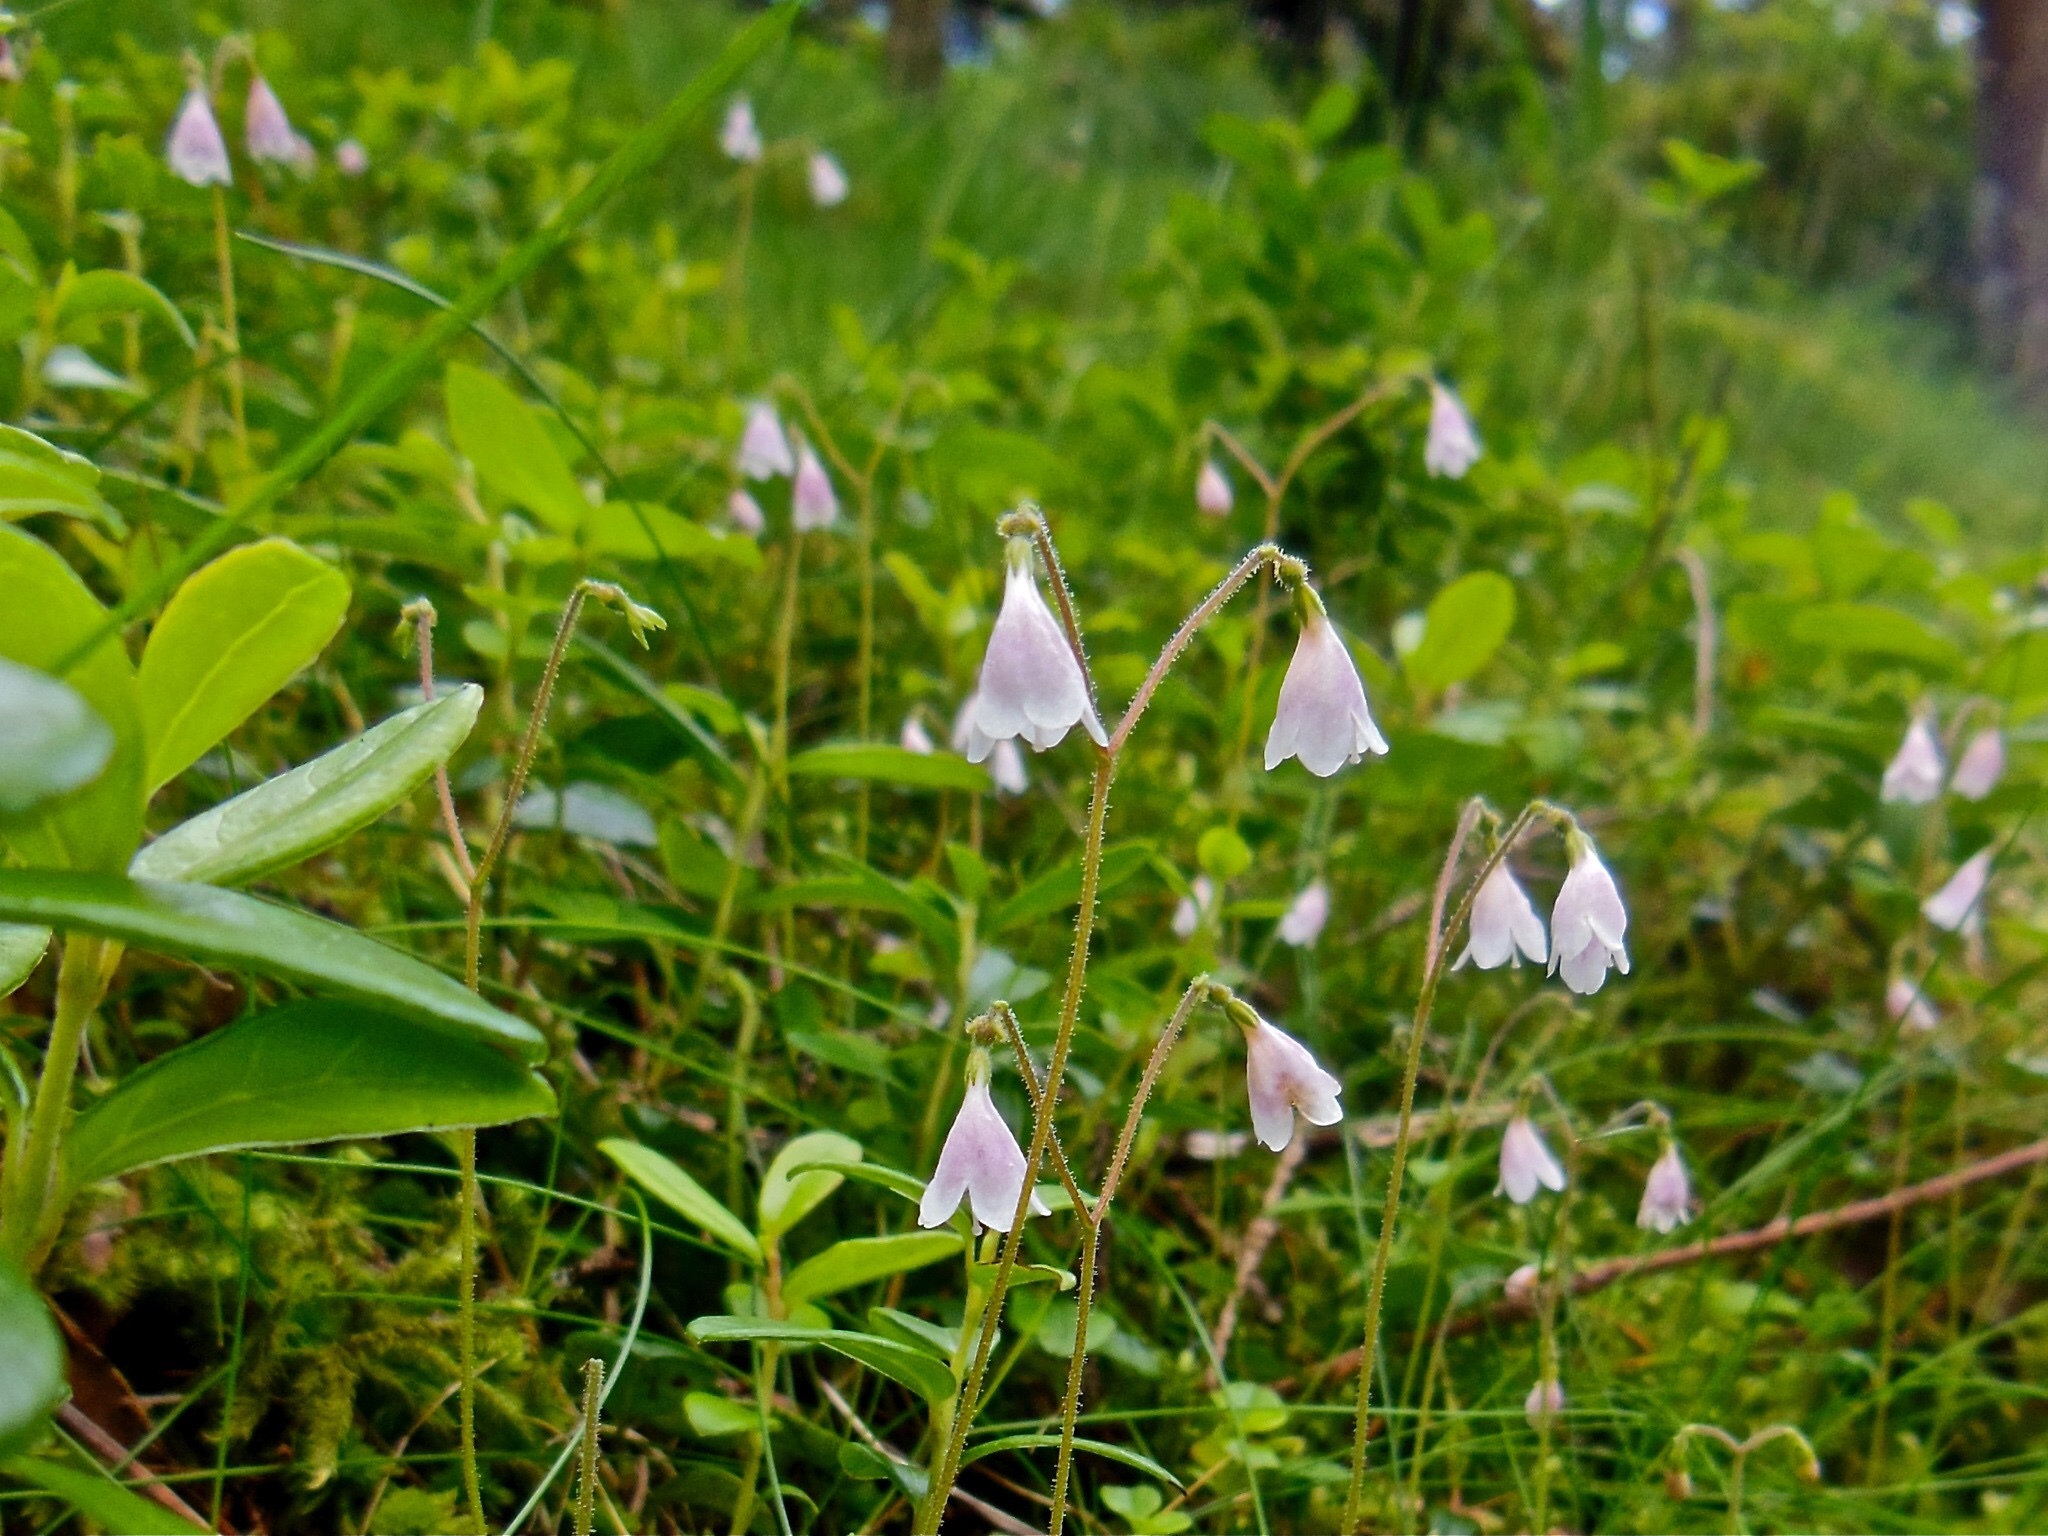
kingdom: Plantae
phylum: Tracheophyta
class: Magnoliopsida
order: Dipsacales
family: Caprifoliaceae
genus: Linnaea
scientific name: Linnaea borealis
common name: Twinflower
